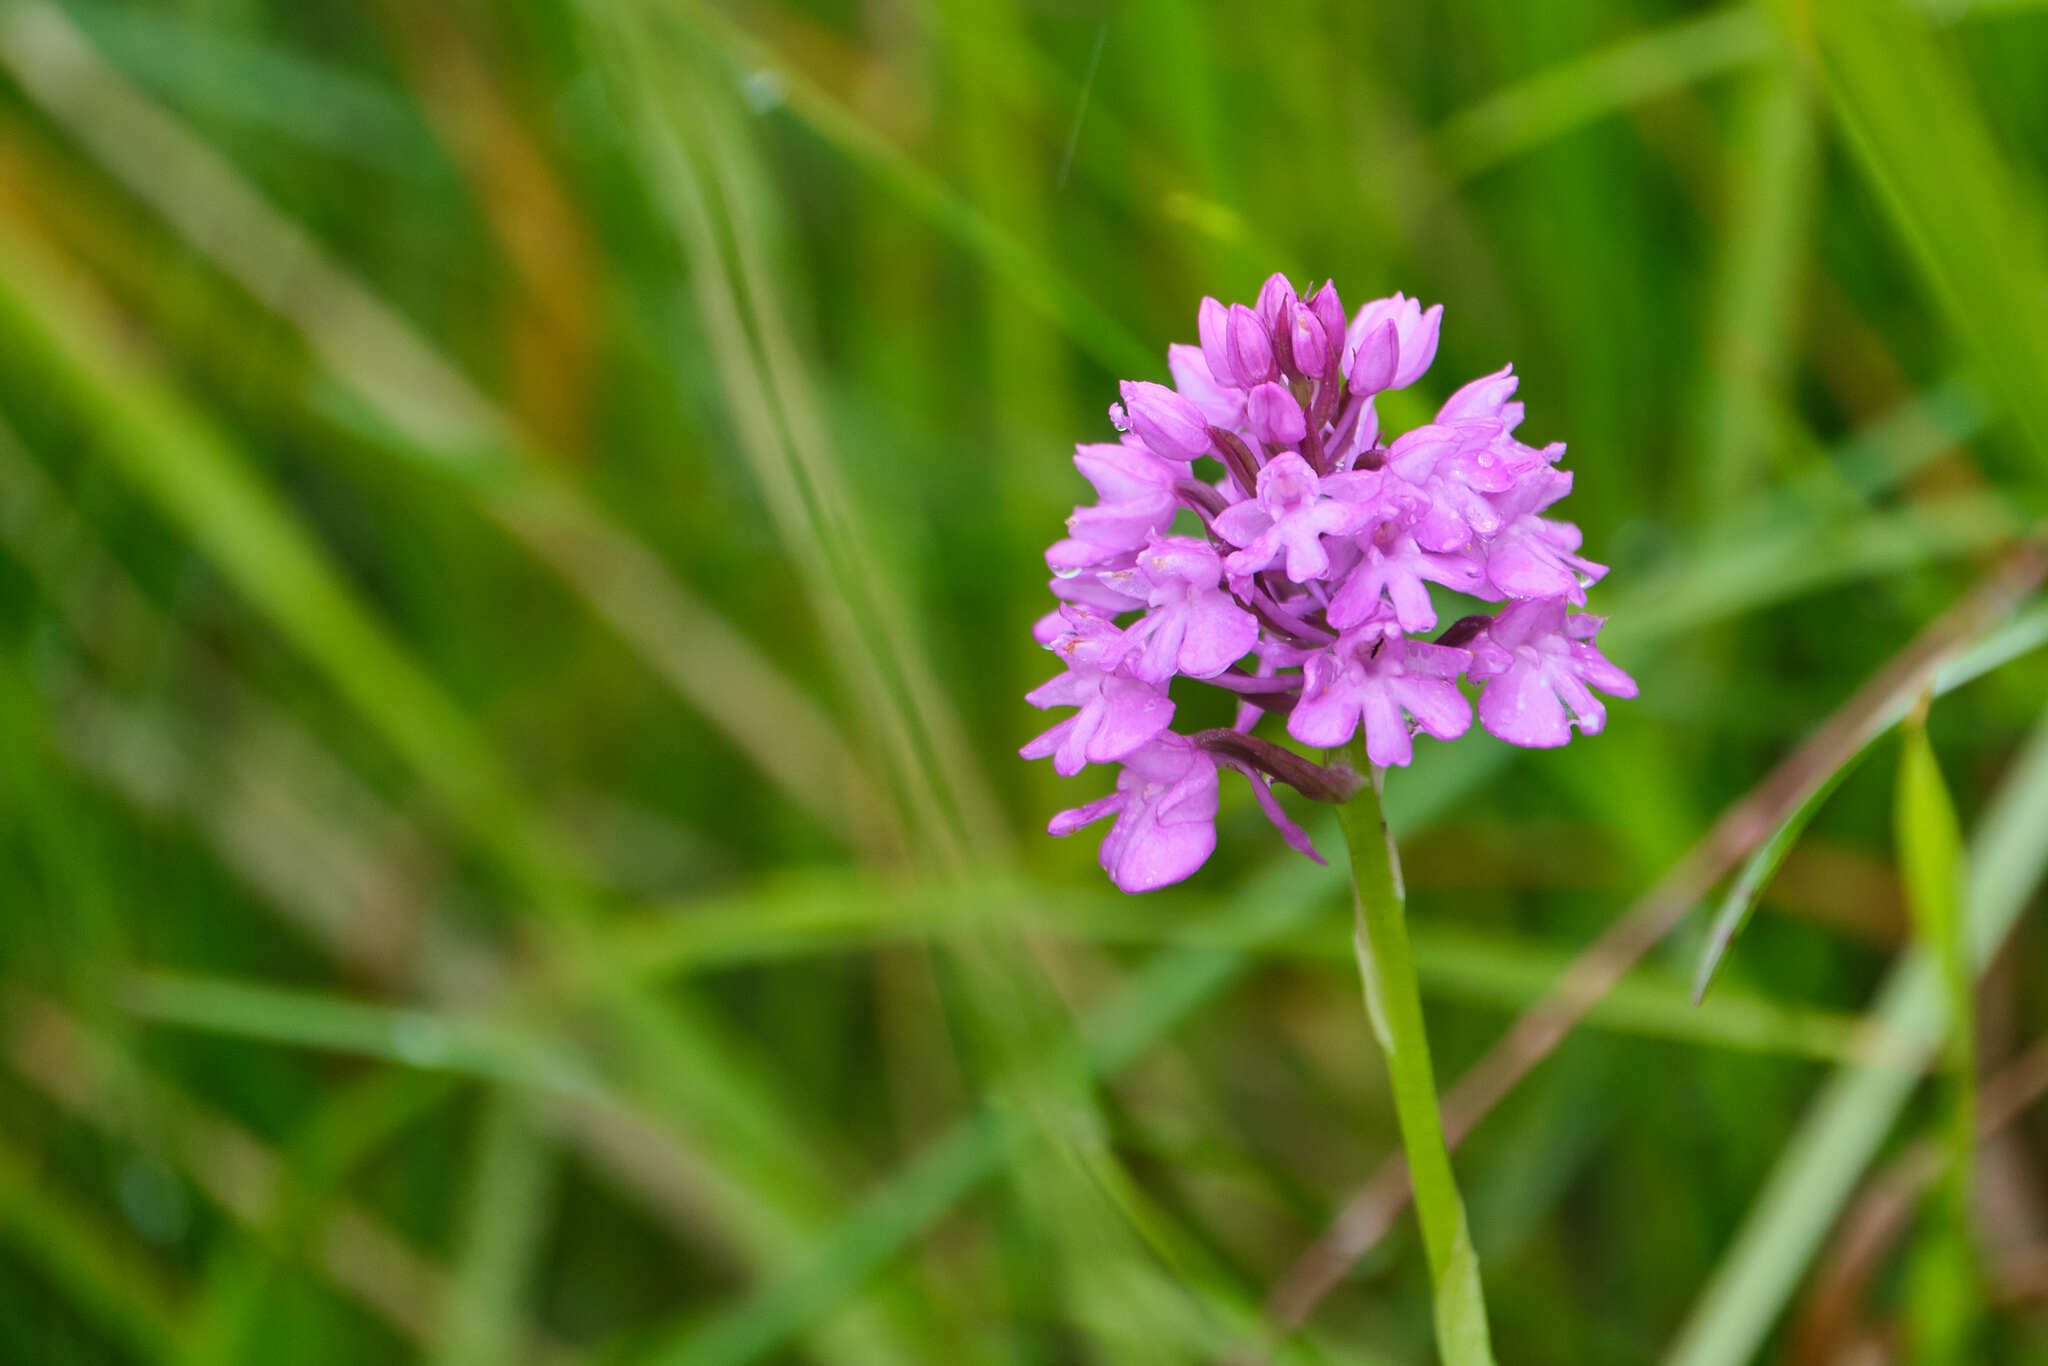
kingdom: Plantae
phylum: Tracheophyta
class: Liliopsida
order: Asparagales
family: Orchidaceae
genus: Anacamptis
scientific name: Anacamptis pyramidalis
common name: Pyramidal orchid
